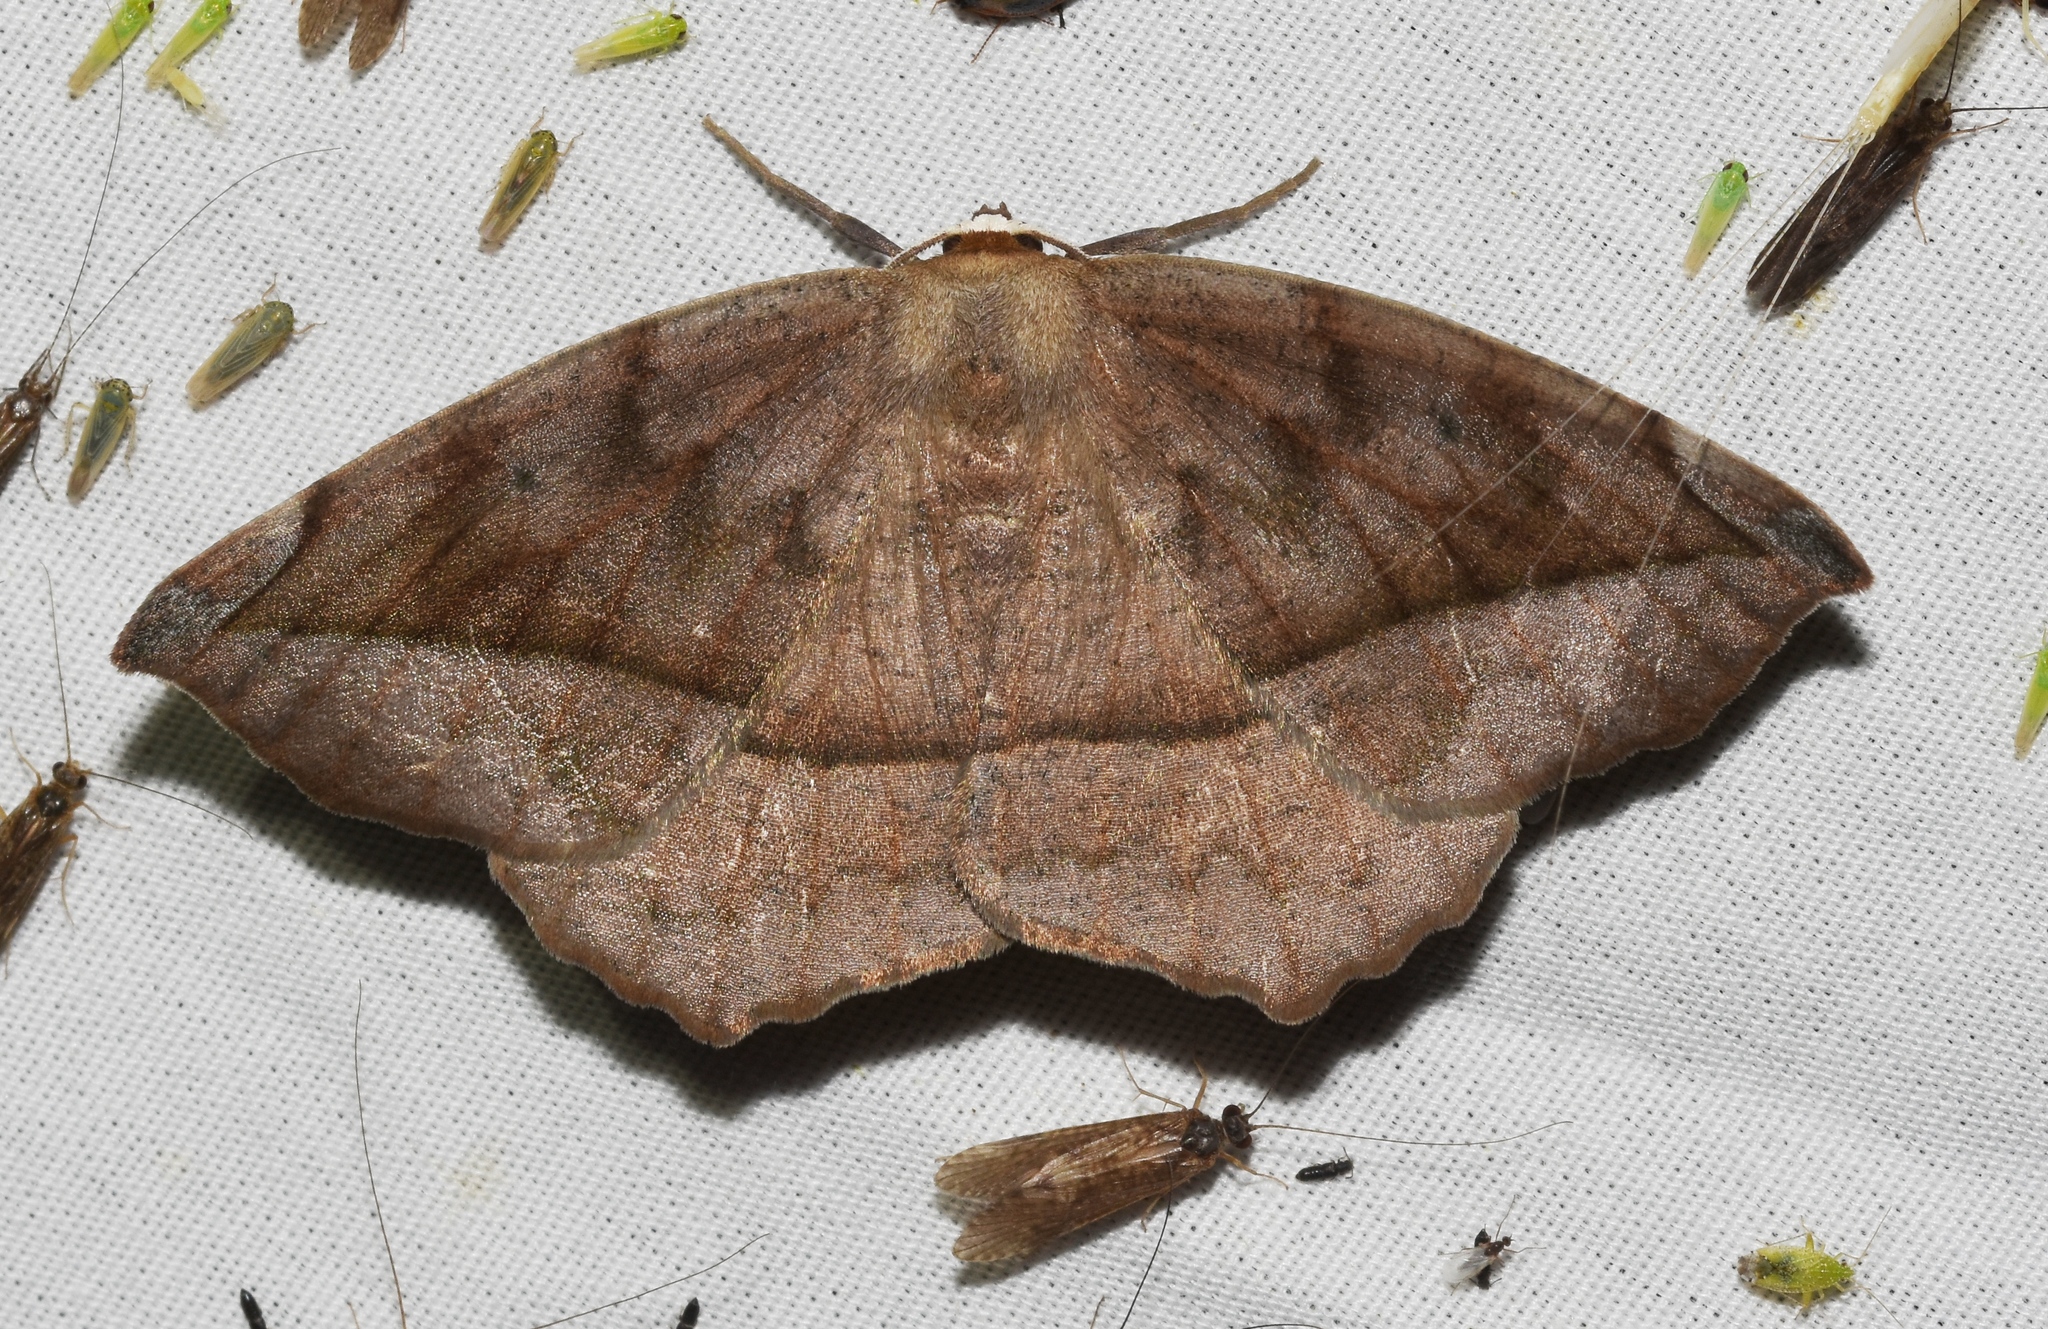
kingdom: Animalia
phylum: Arthropoda
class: Insecta
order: Lepidoptera
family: Geometridae
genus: Eutrapela
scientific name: Eutrapela clemataria
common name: Curved-toothed geometer
